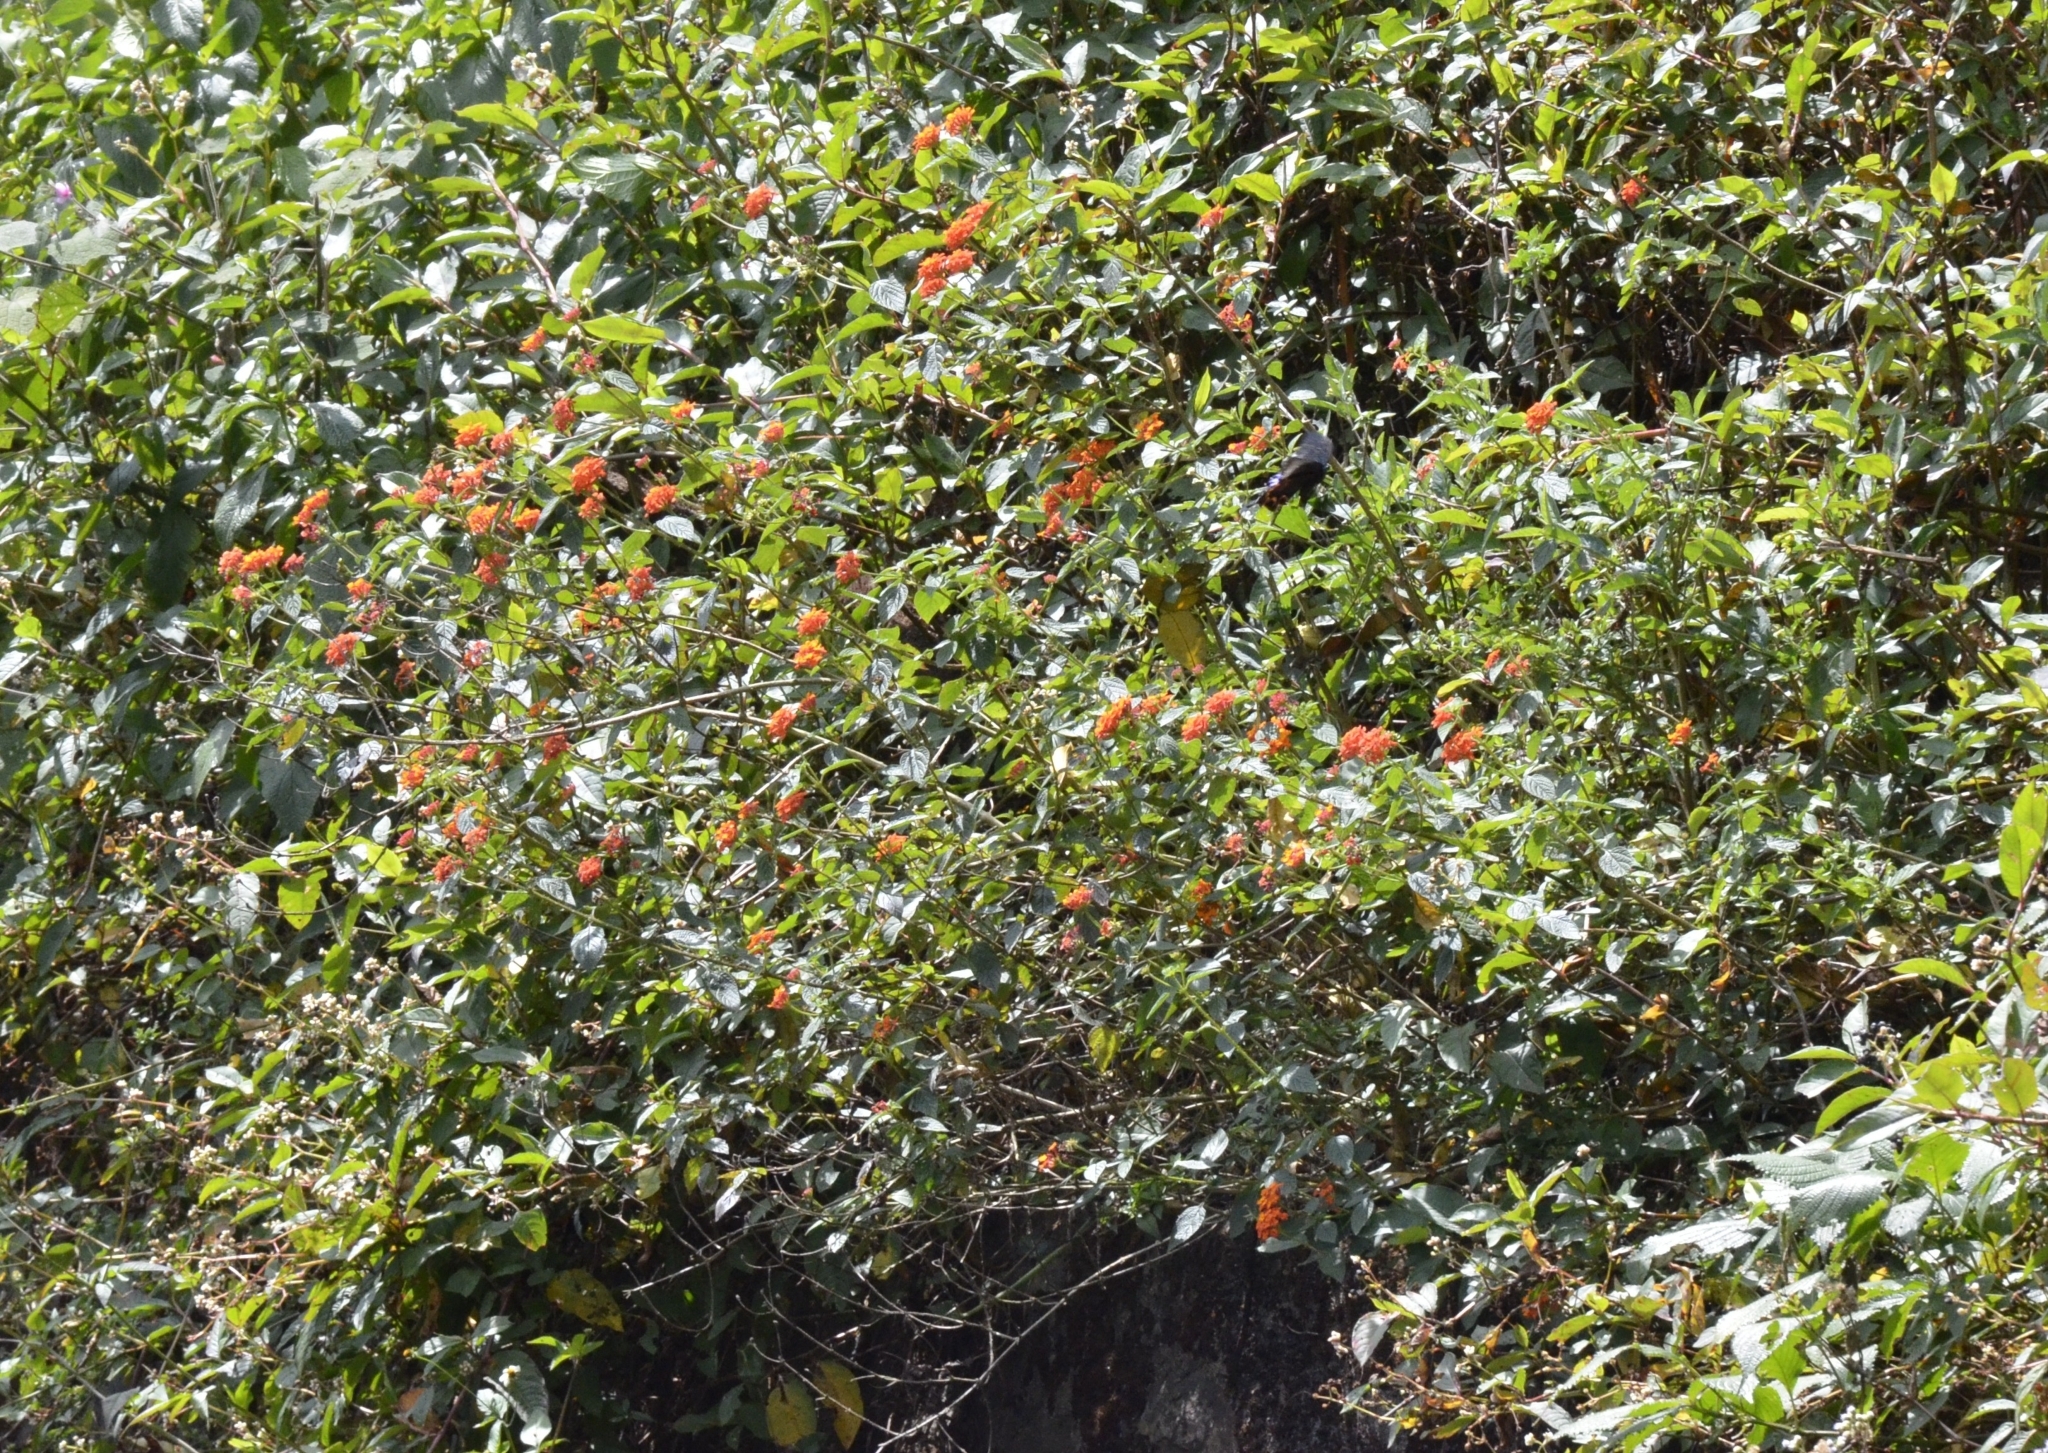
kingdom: Plantae
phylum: Tracheophyta
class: Magnoliopsida
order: Lamiales
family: Verbenaceae
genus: Lantana
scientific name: Lantana camara
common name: Lantana
